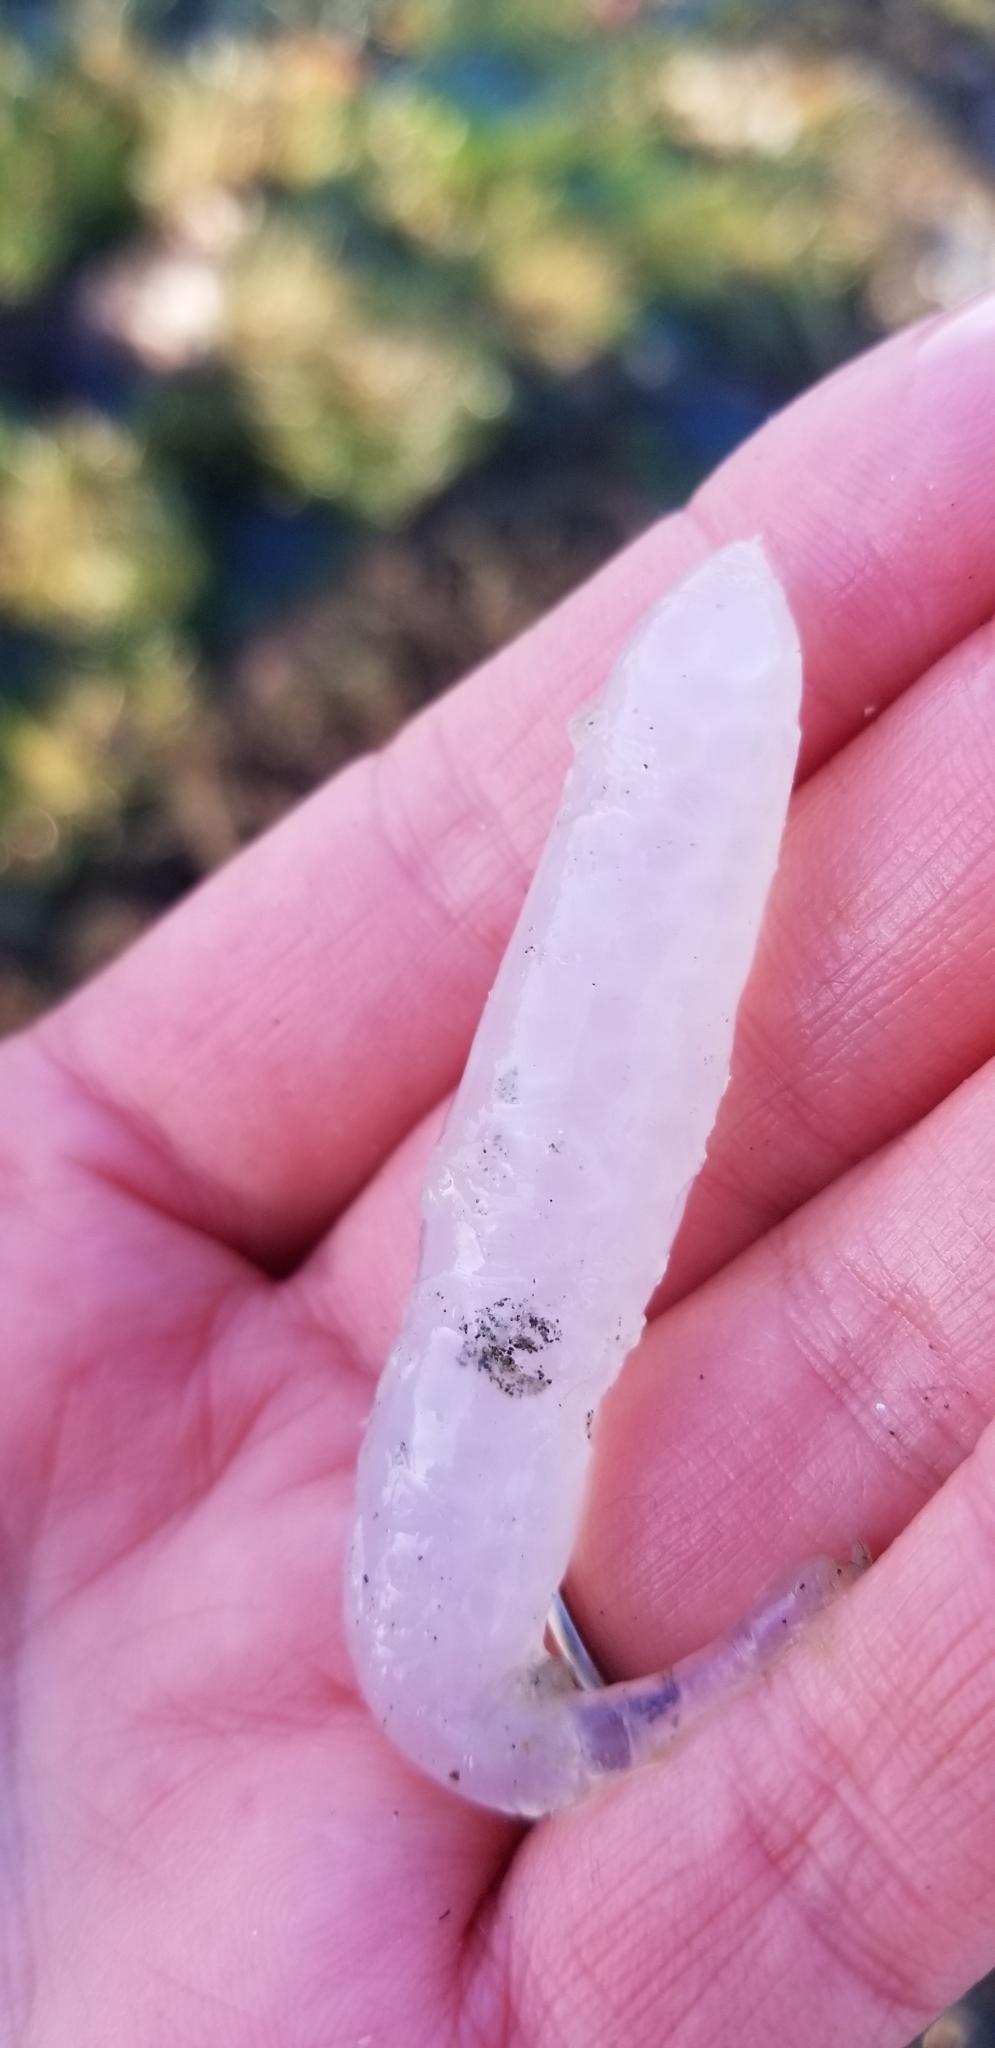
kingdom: Animalia
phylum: Mollusca
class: Cephalopoda
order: Myopsida
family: Loliginidae
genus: Doryteuthis
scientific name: Doryteuthis opalescens
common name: Opalescent inshore squid
